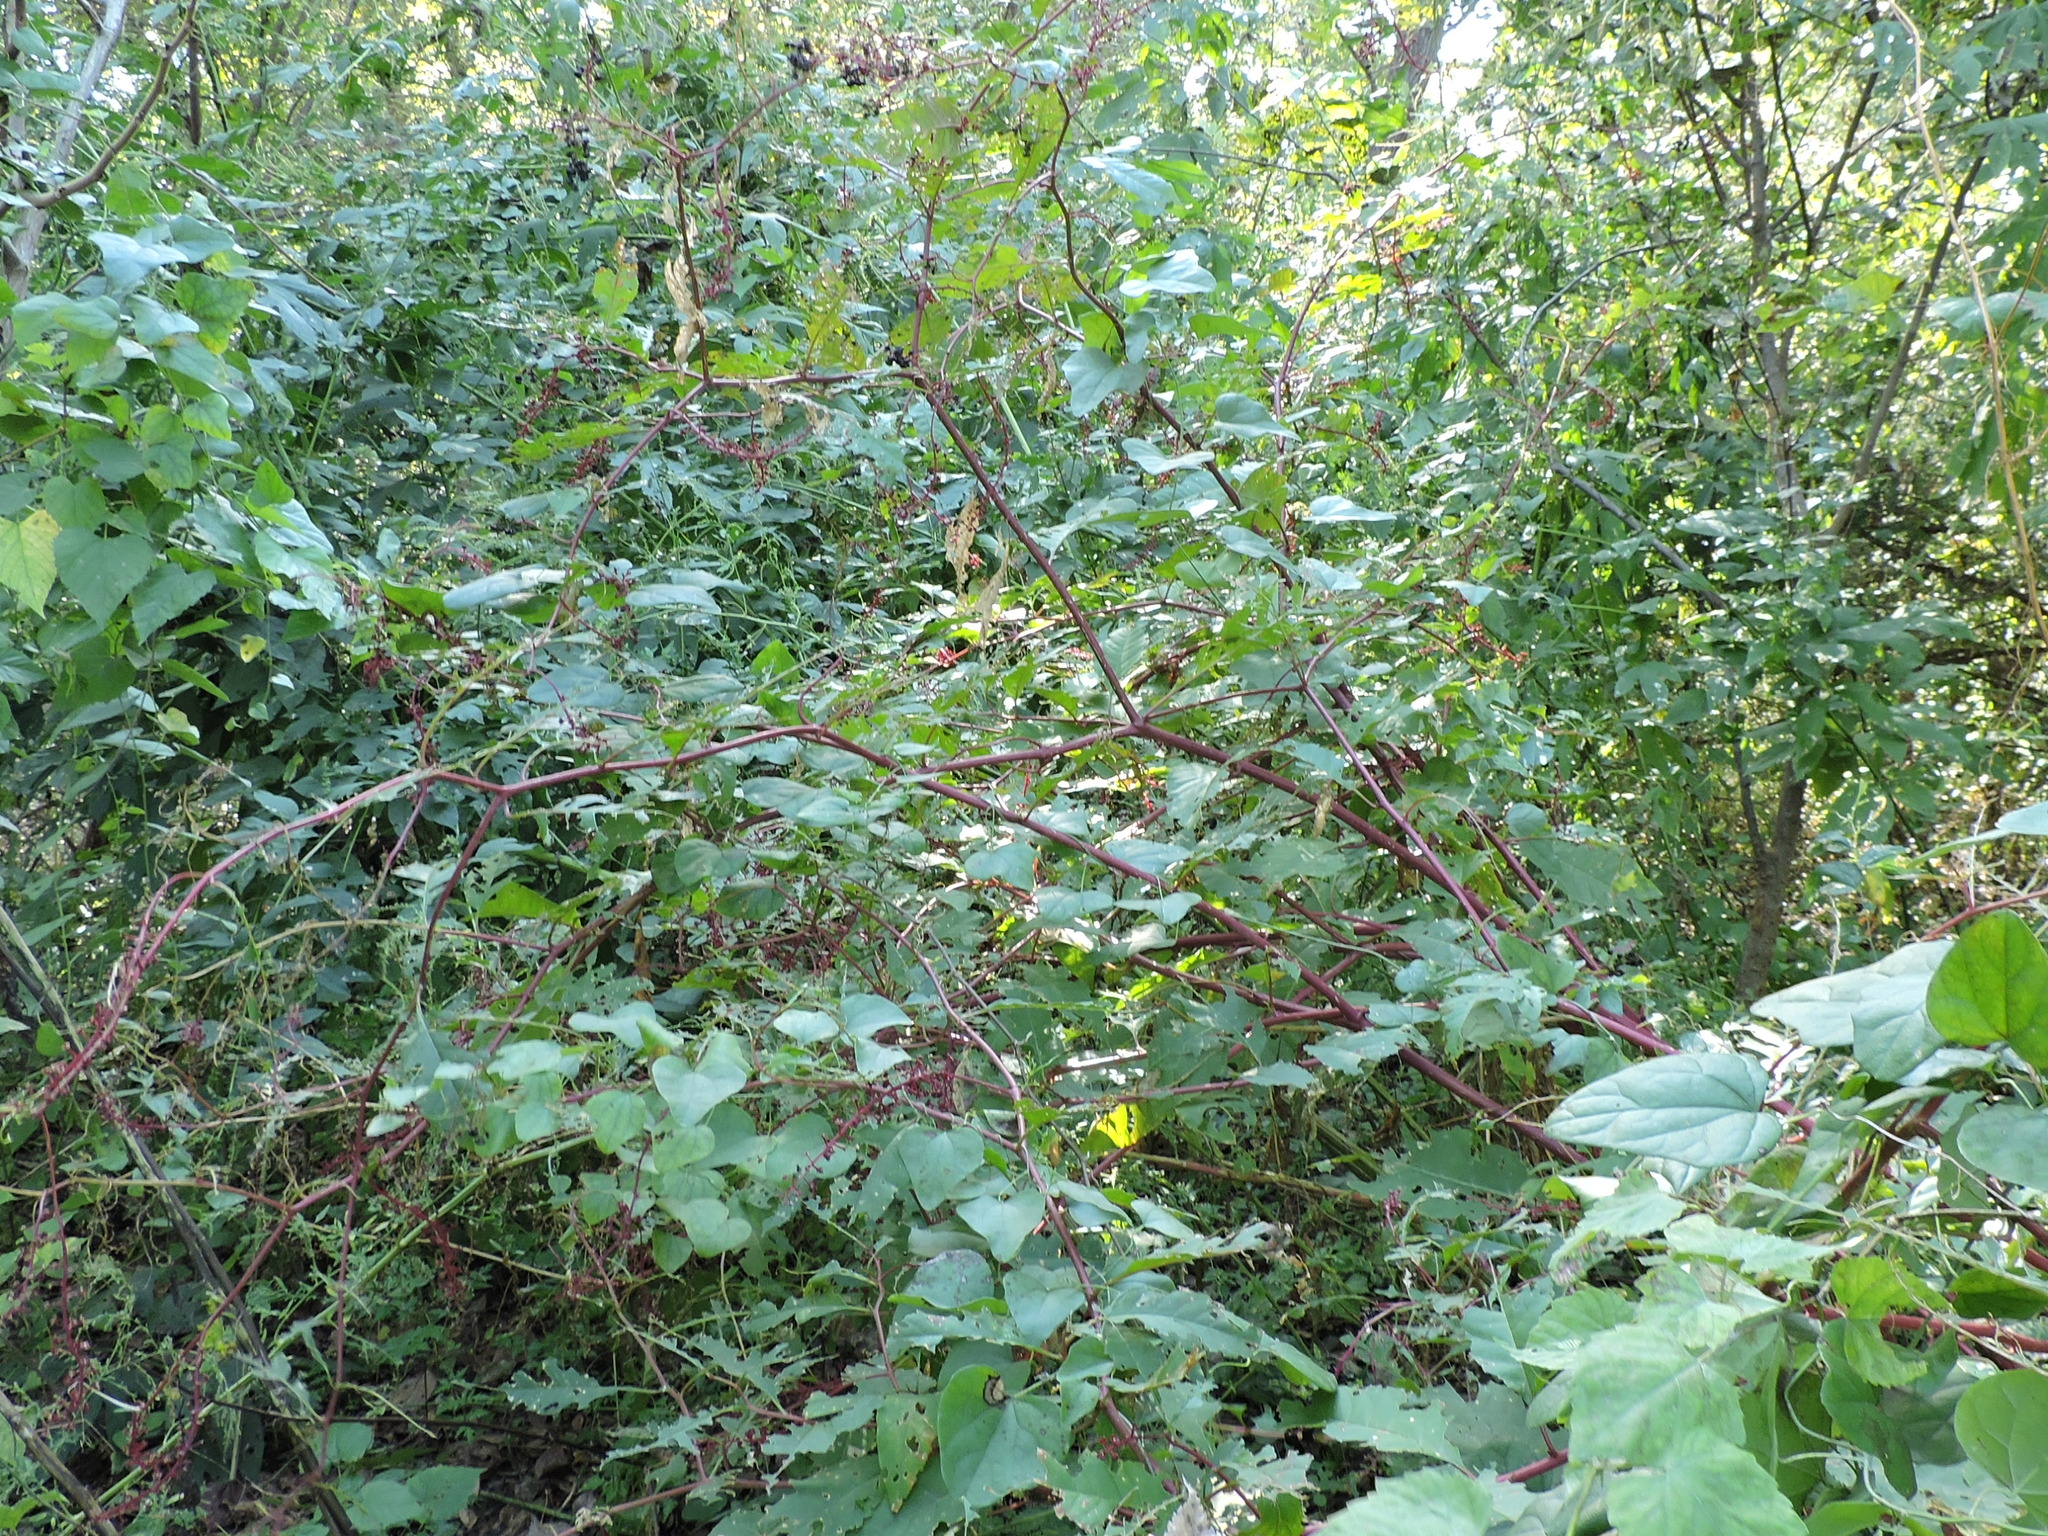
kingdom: Plantae
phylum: Tracheophyta
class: Magnoliopsida
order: Caryophyllales
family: Phytolaccaceae
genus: Phytolacca
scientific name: Phytolacca americana
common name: American pokeweed
